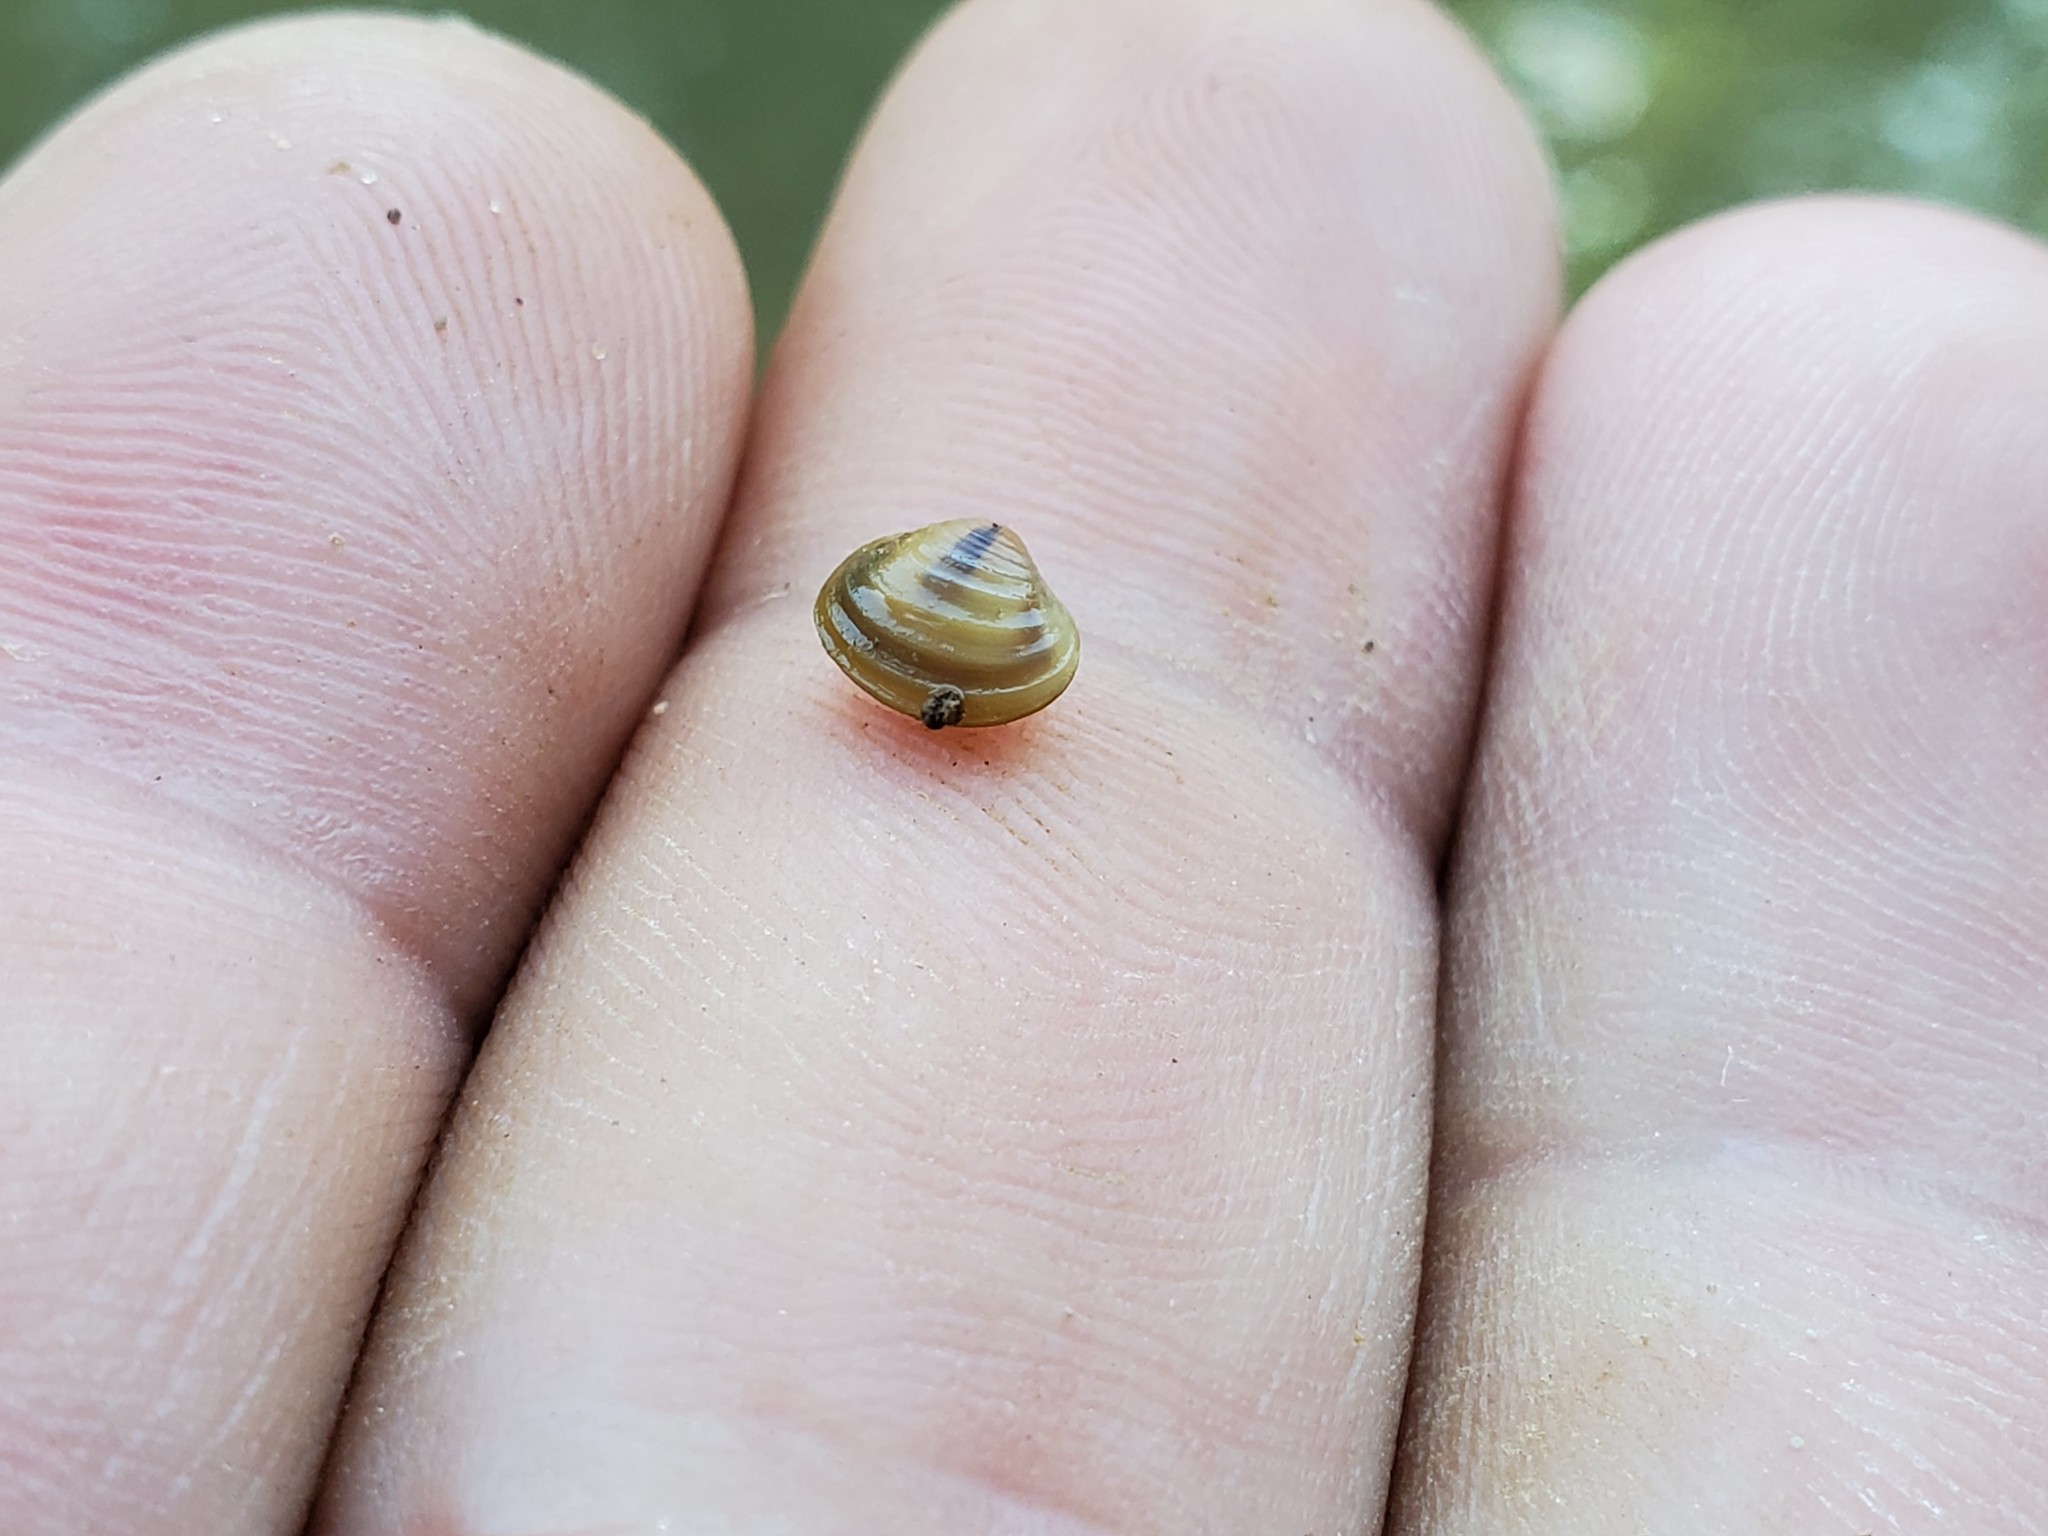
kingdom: Animalia
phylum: Mollusca
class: Bivalvia
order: Venerida
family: Cyrenidae
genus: Corbicula
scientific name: Corbicula fluminea
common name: Asian clam
